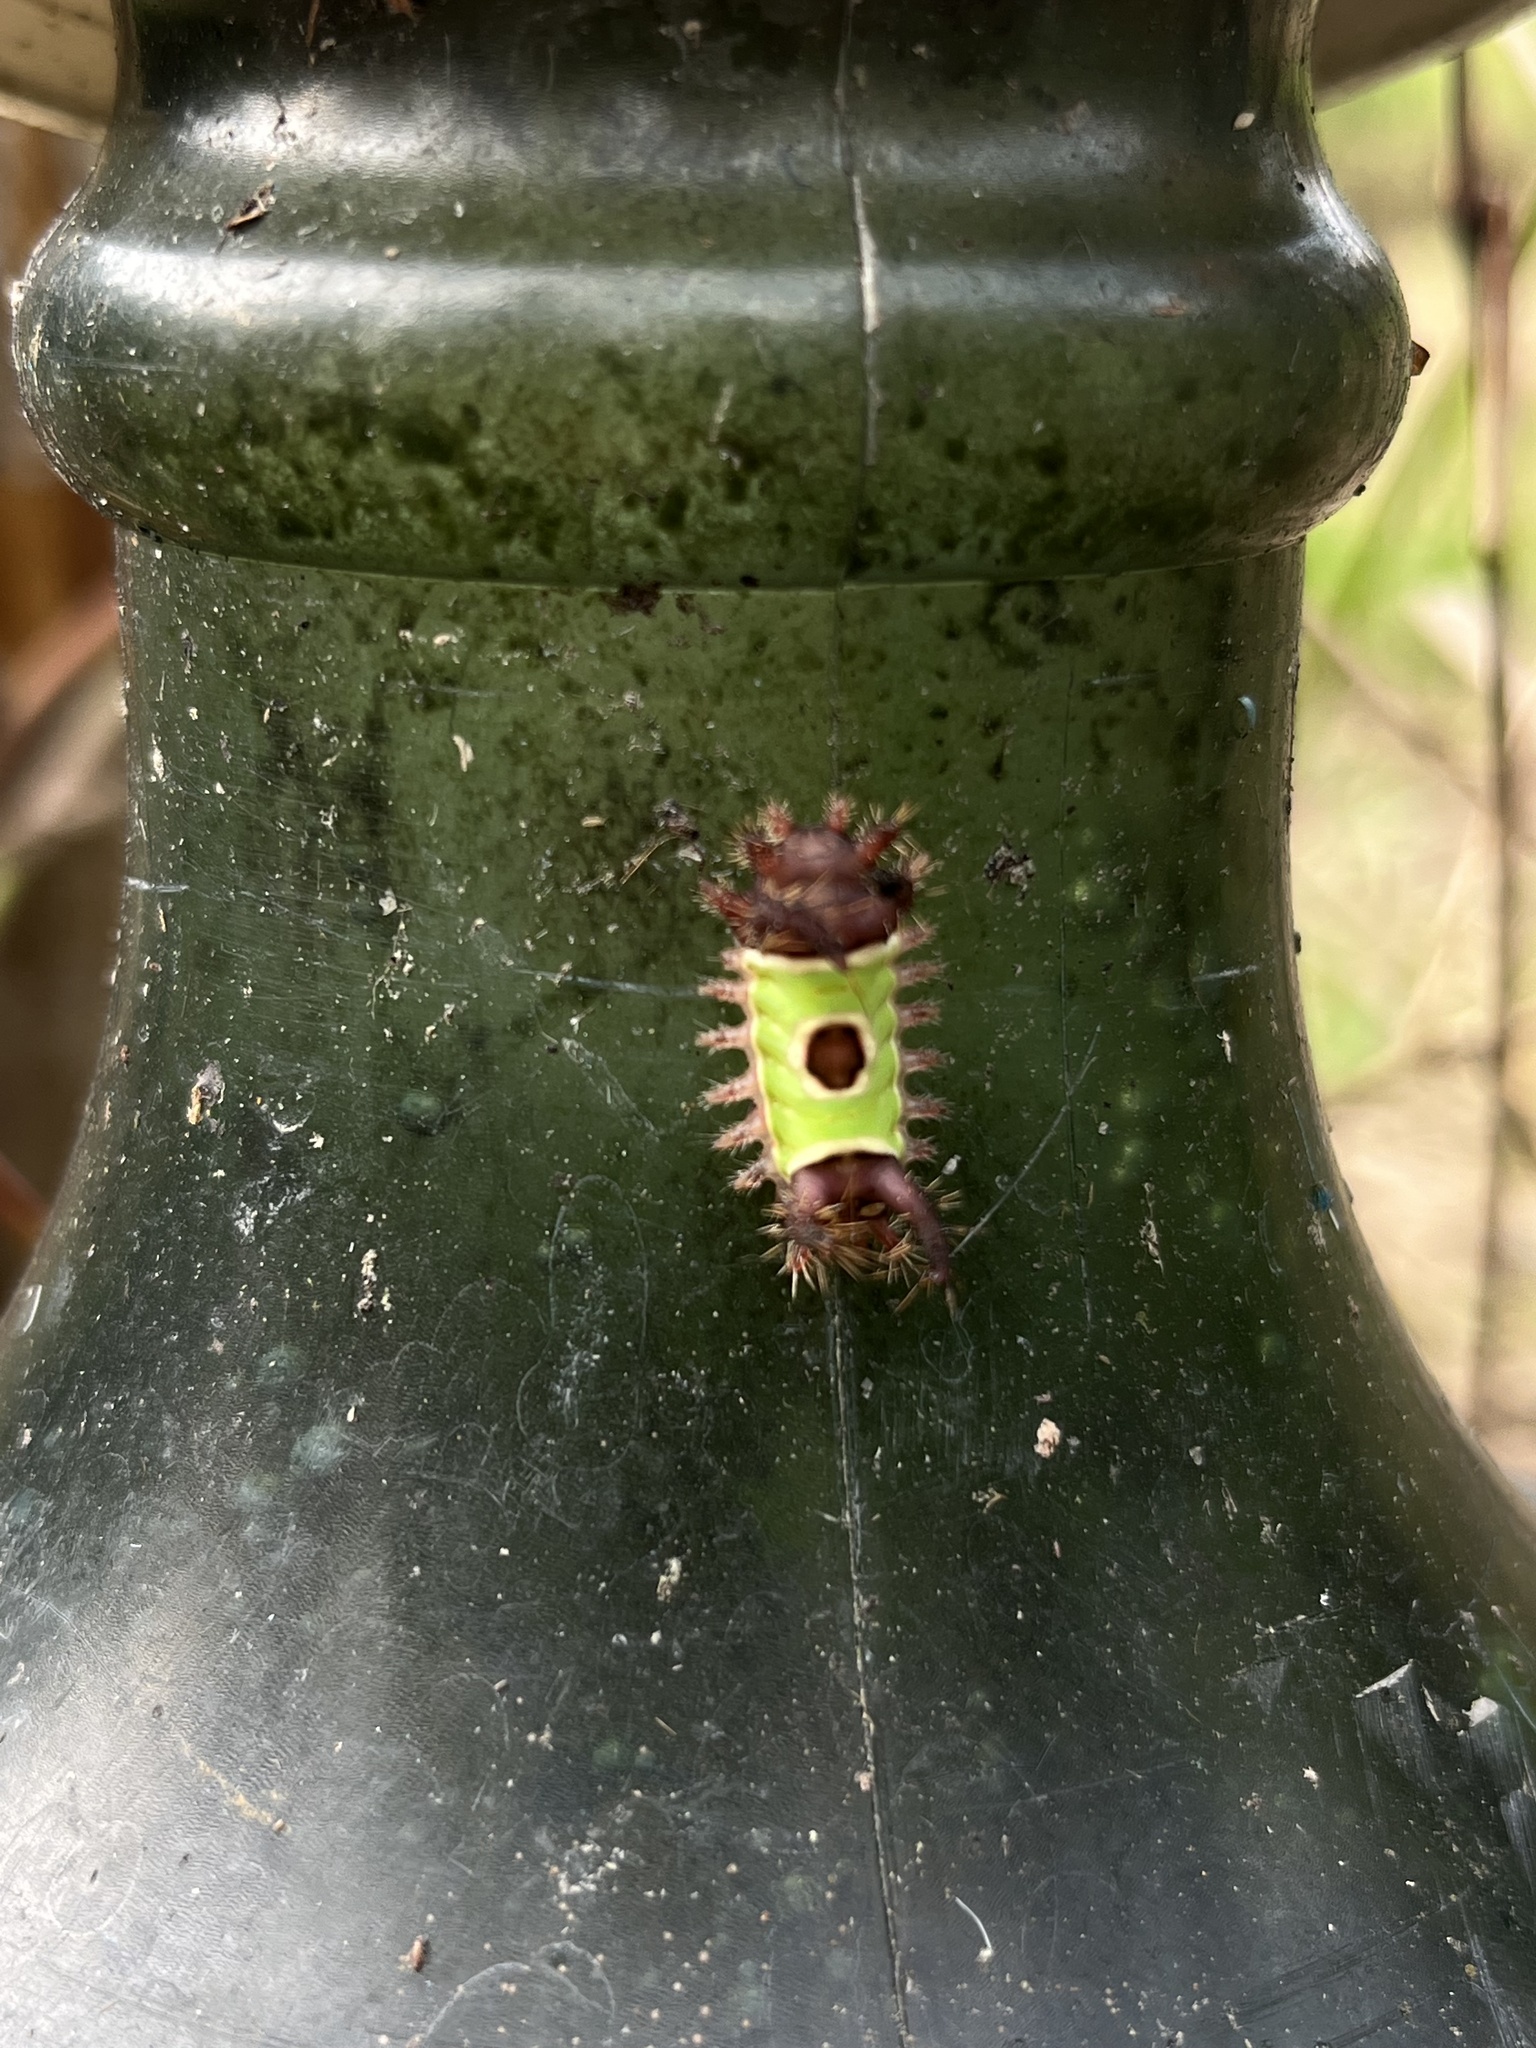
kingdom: Animalia
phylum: Arthropoda
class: Insecta
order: Lepidoptera
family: Limacodidae
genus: Acharia
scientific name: Acharia hyperoche
